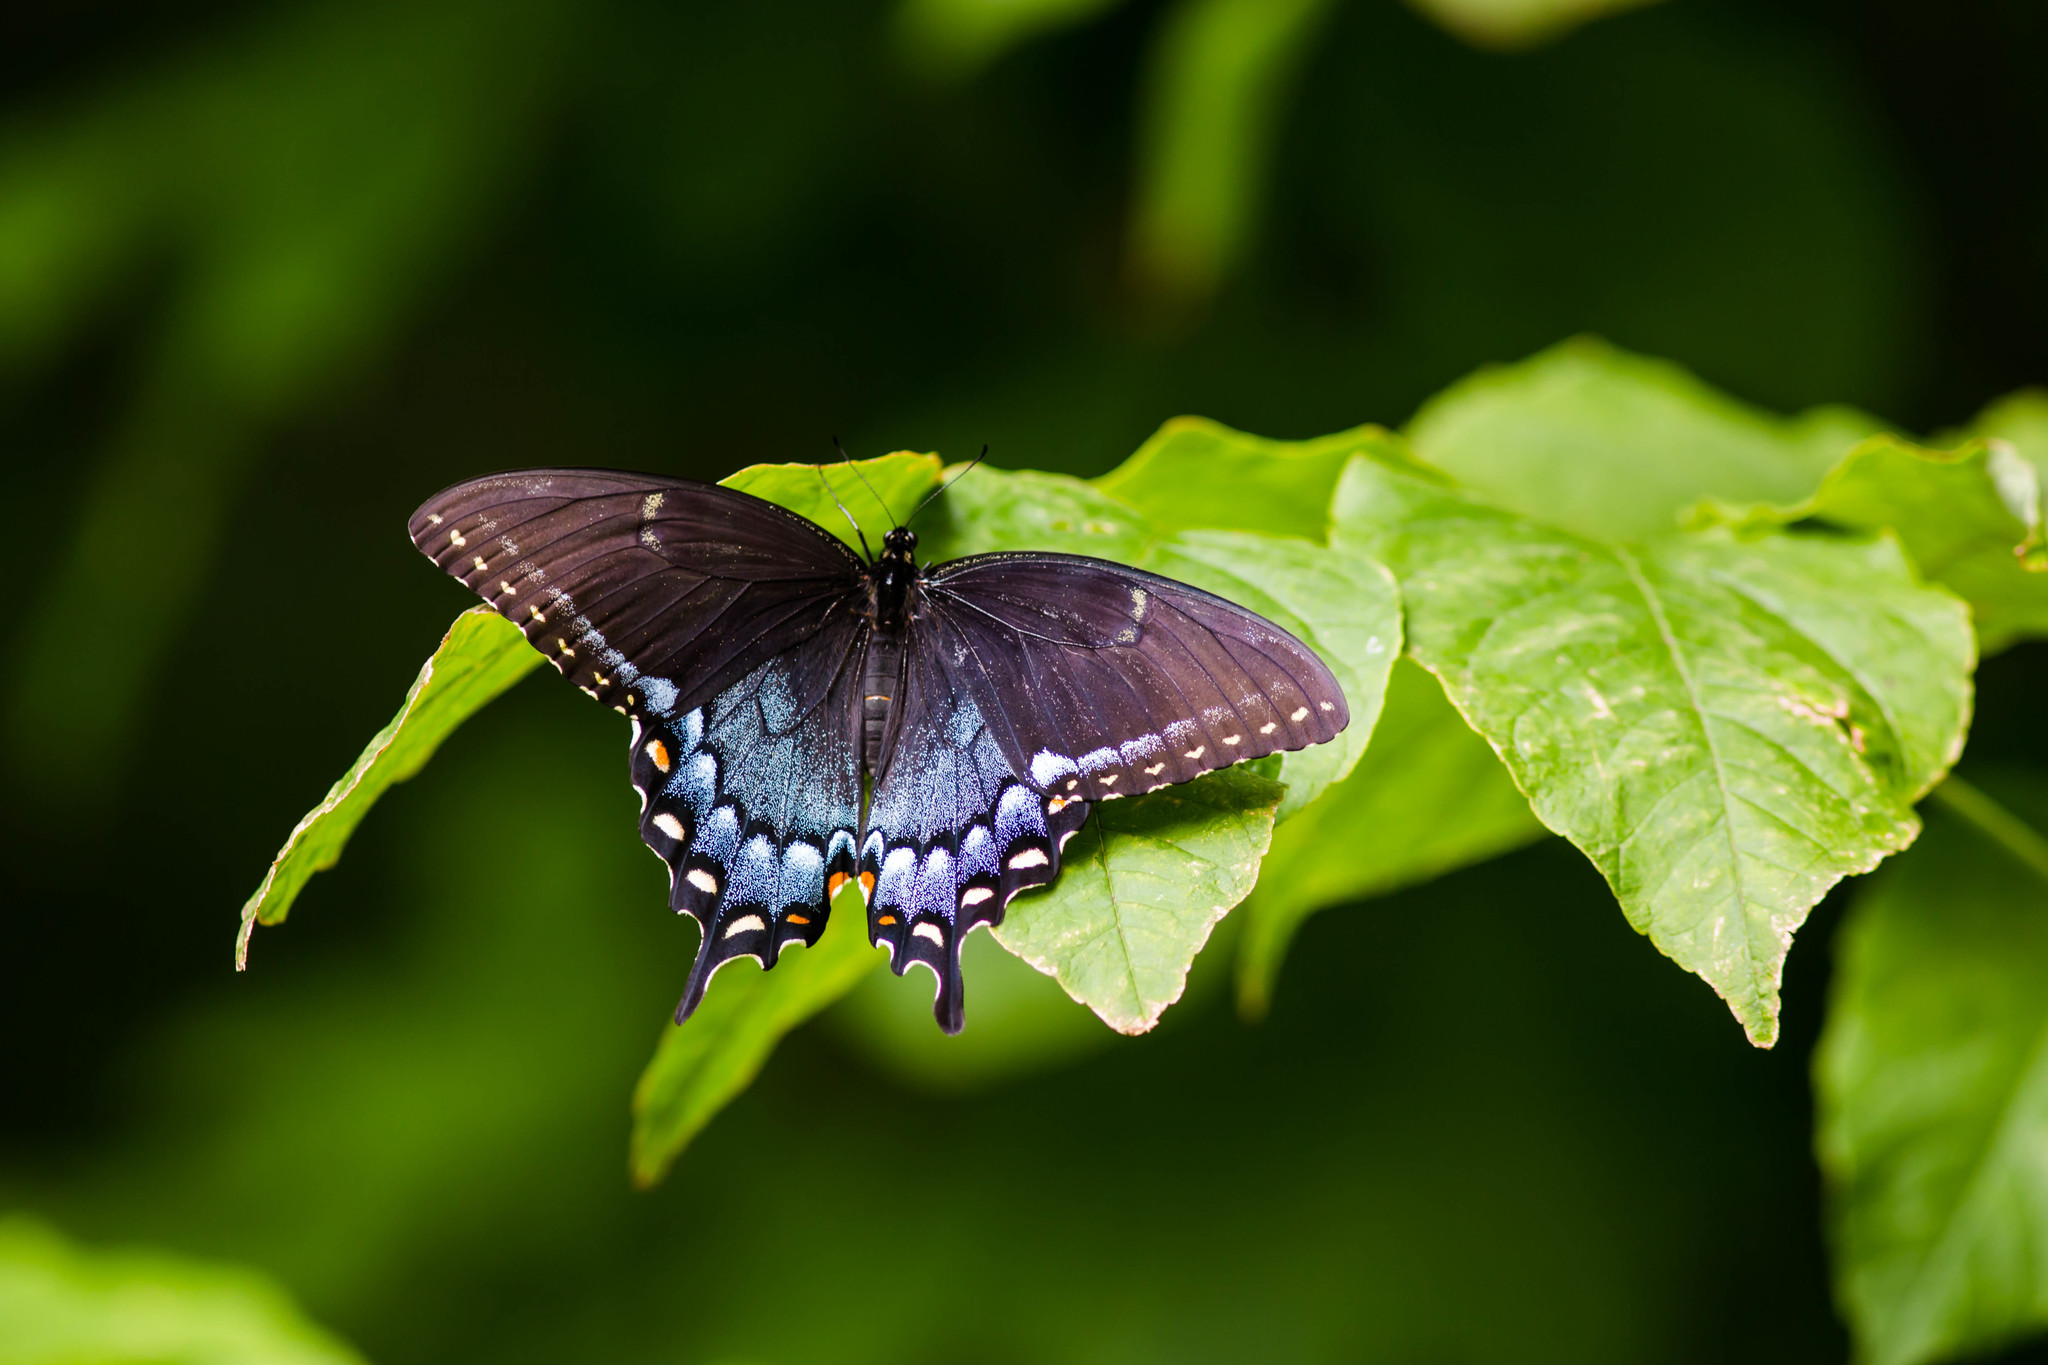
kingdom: Animalia
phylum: Arthropoda
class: Insecta
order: Lepidoptera
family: Papilionidae
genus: Papilio
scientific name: Papilio glaucus
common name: Tiger swallowtail
